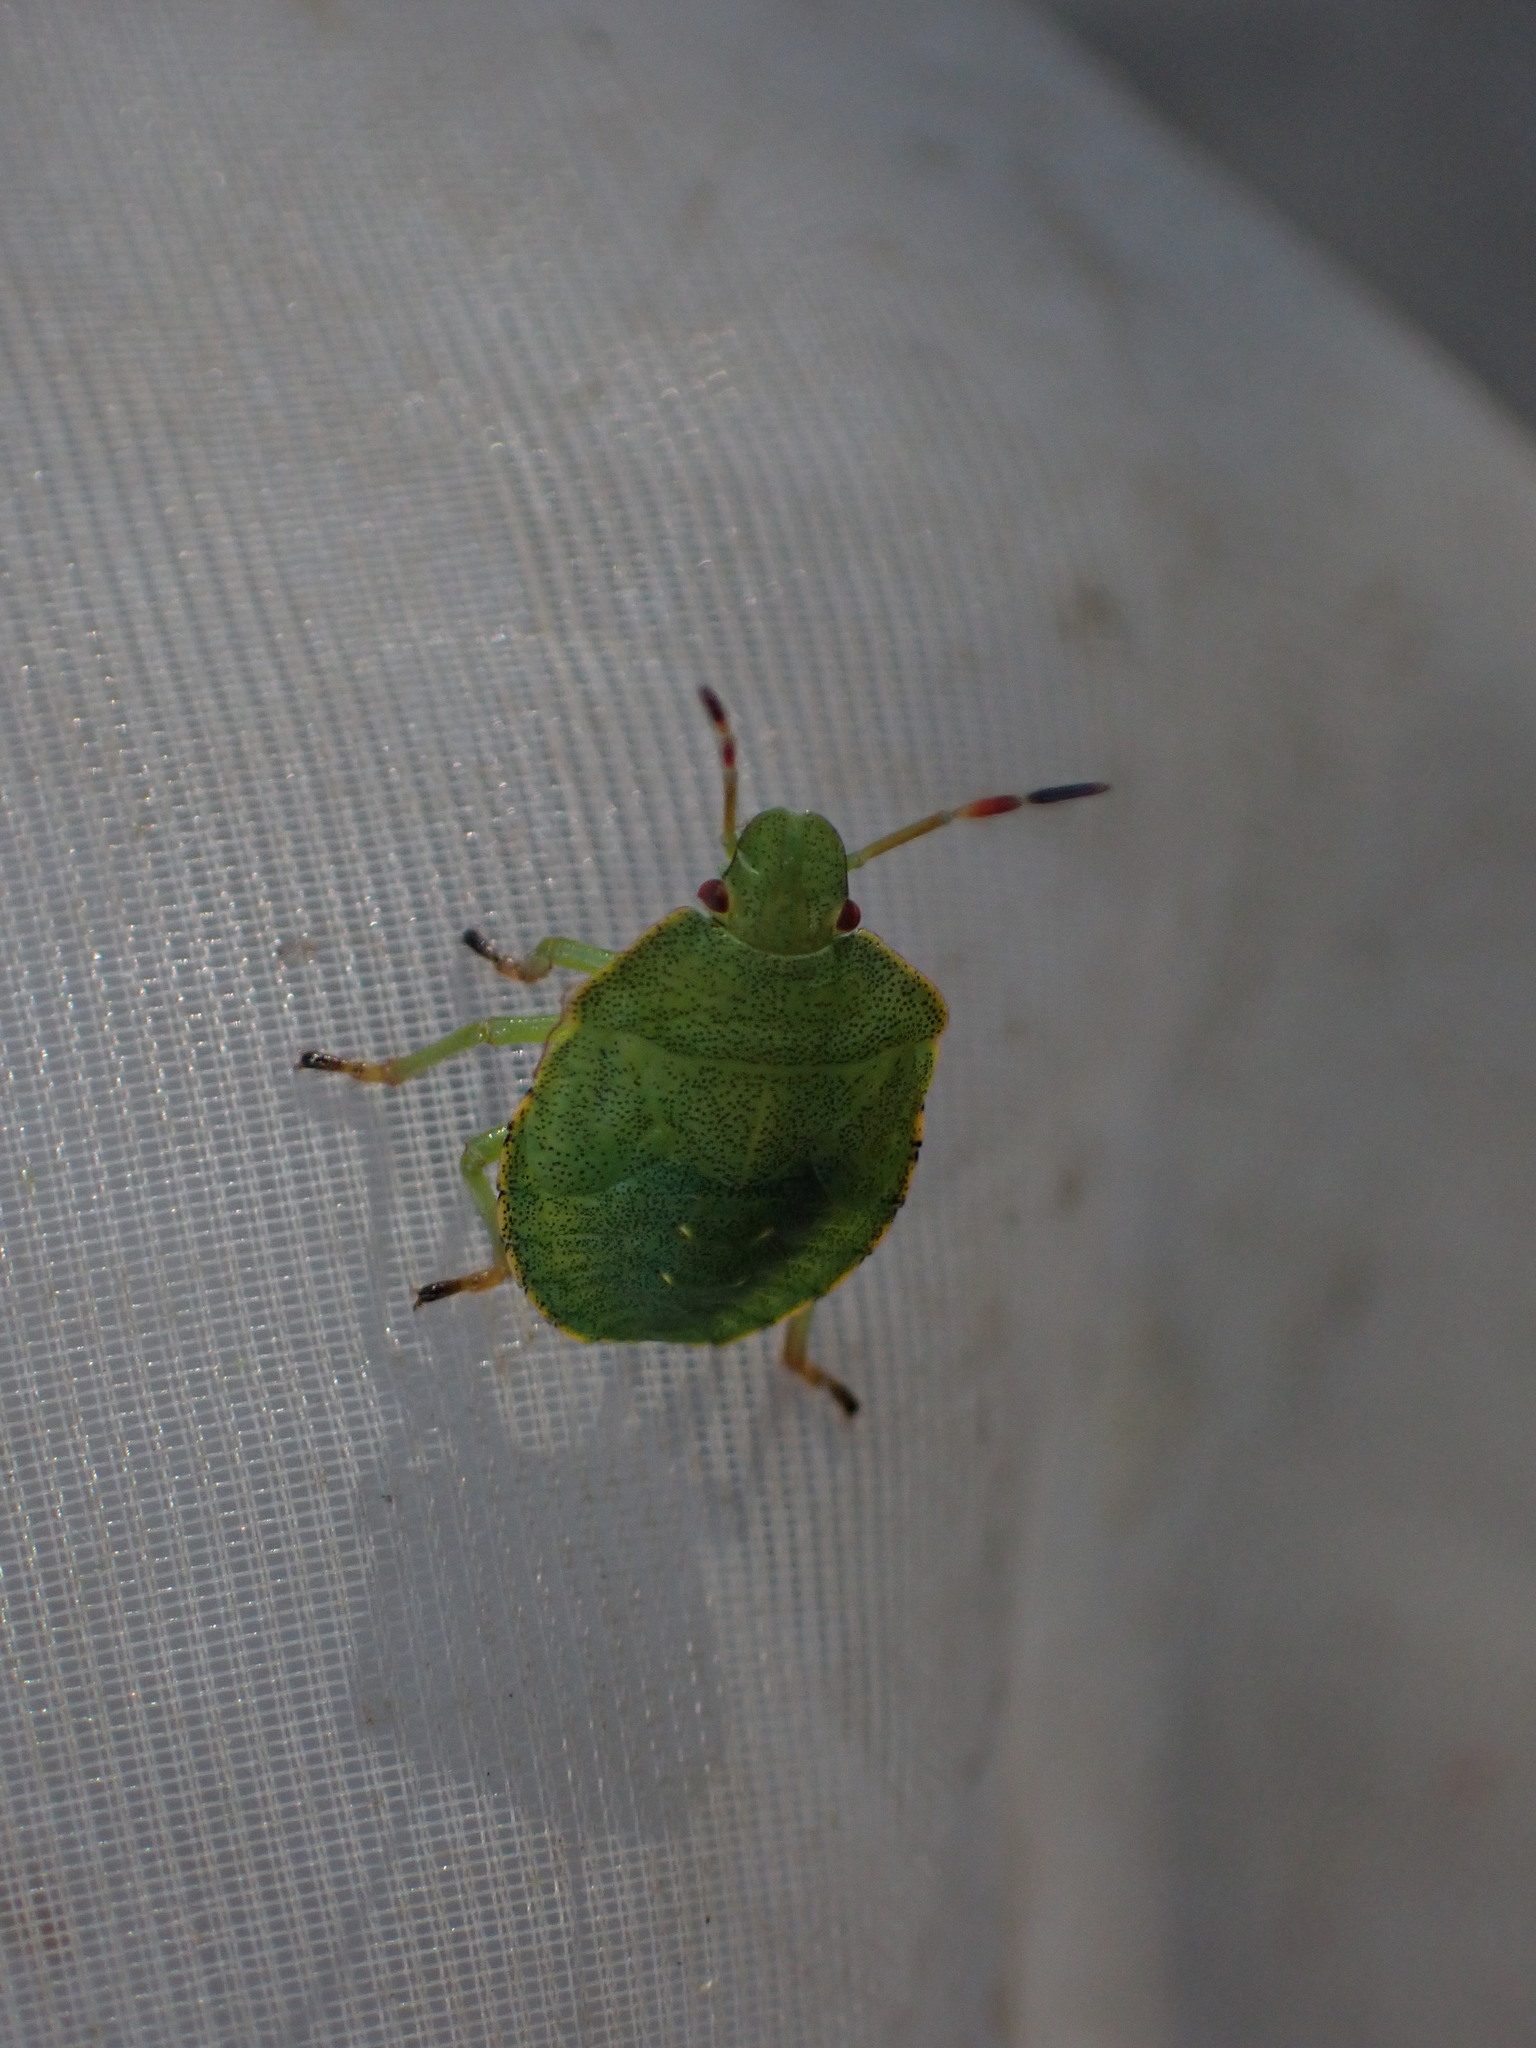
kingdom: Animalia
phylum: Arthropoda
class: Insecta
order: Hemiptera
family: Pentatomidae
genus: Palomena
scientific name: Palomena prasina
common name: Green shieldbug
